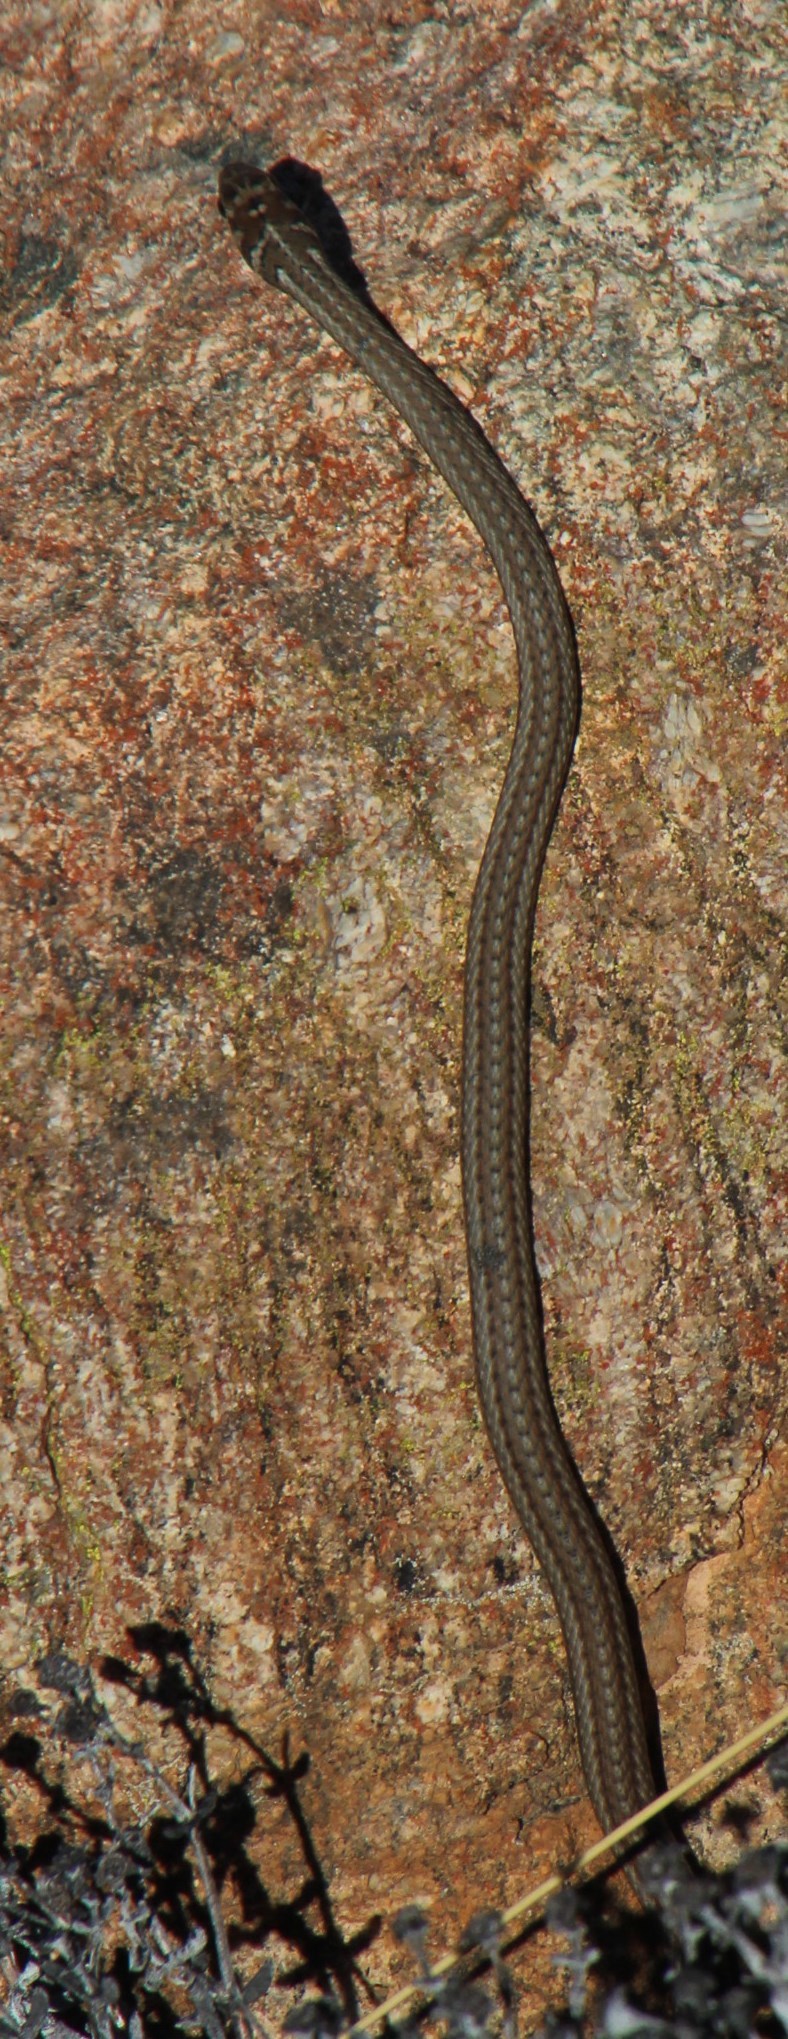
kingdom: Animalia
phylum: Chordata
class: Squamata
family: Psammophiidae
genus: Psammophis
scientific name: Psammophis notostictus
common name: Karoo sand snake
